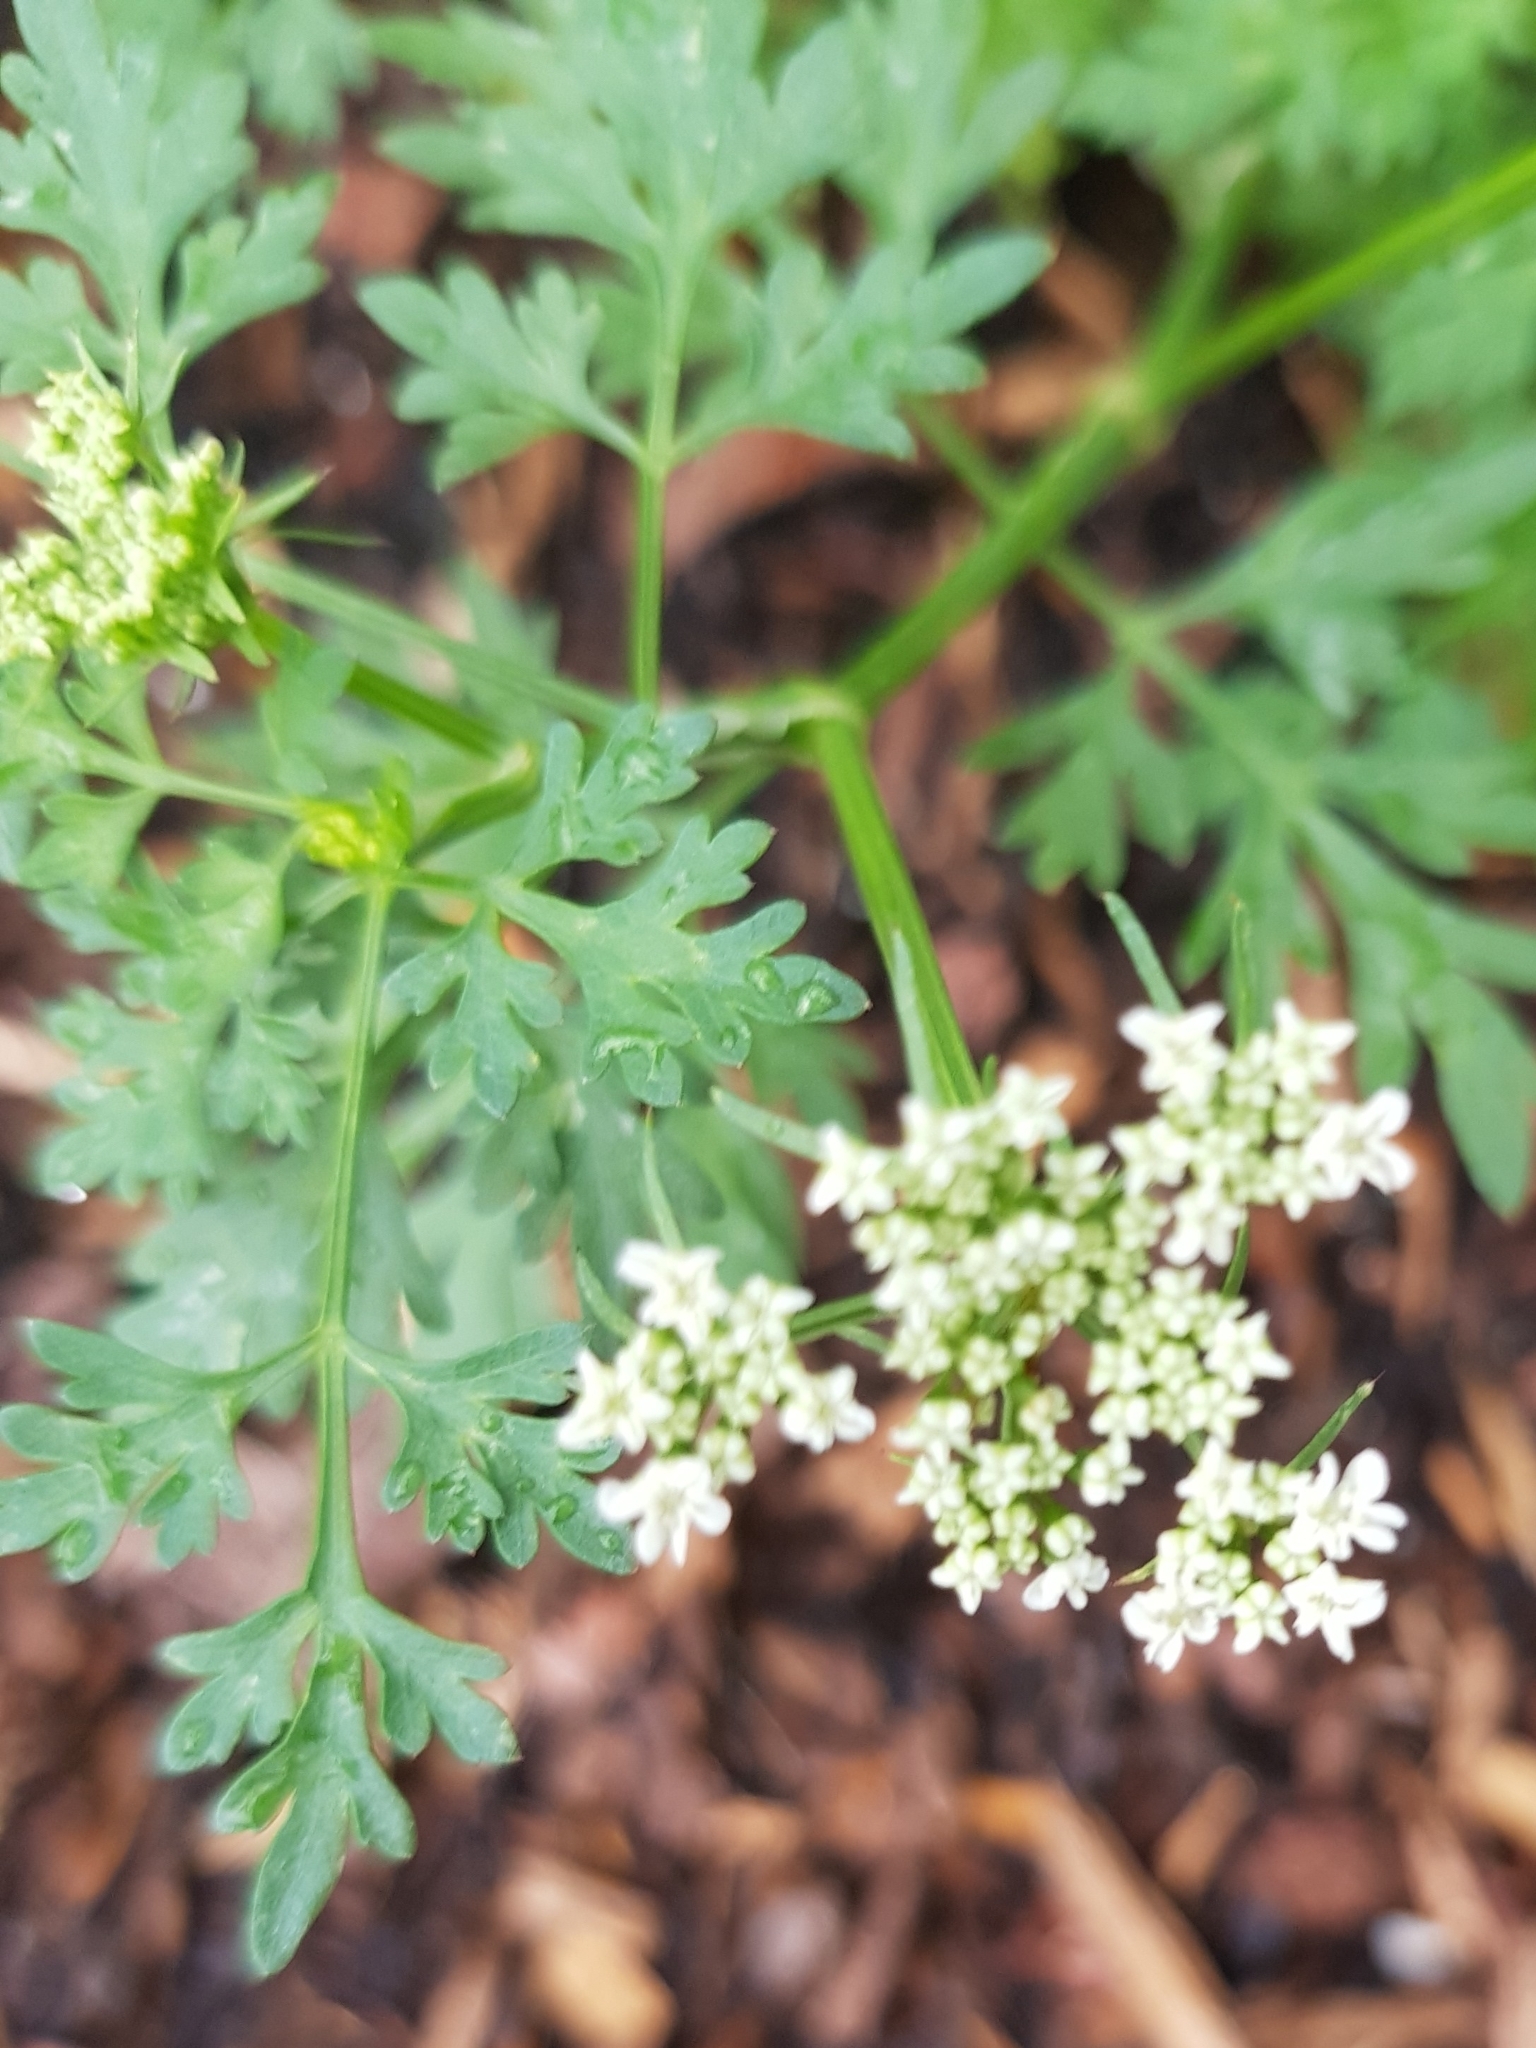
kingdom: Plantae
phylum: Tracheophyta
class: Magnoliopsida
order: Apiales
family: Apiaceae
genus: Aethusa
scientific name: Aethusa cynapium
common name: Fool's parsley
